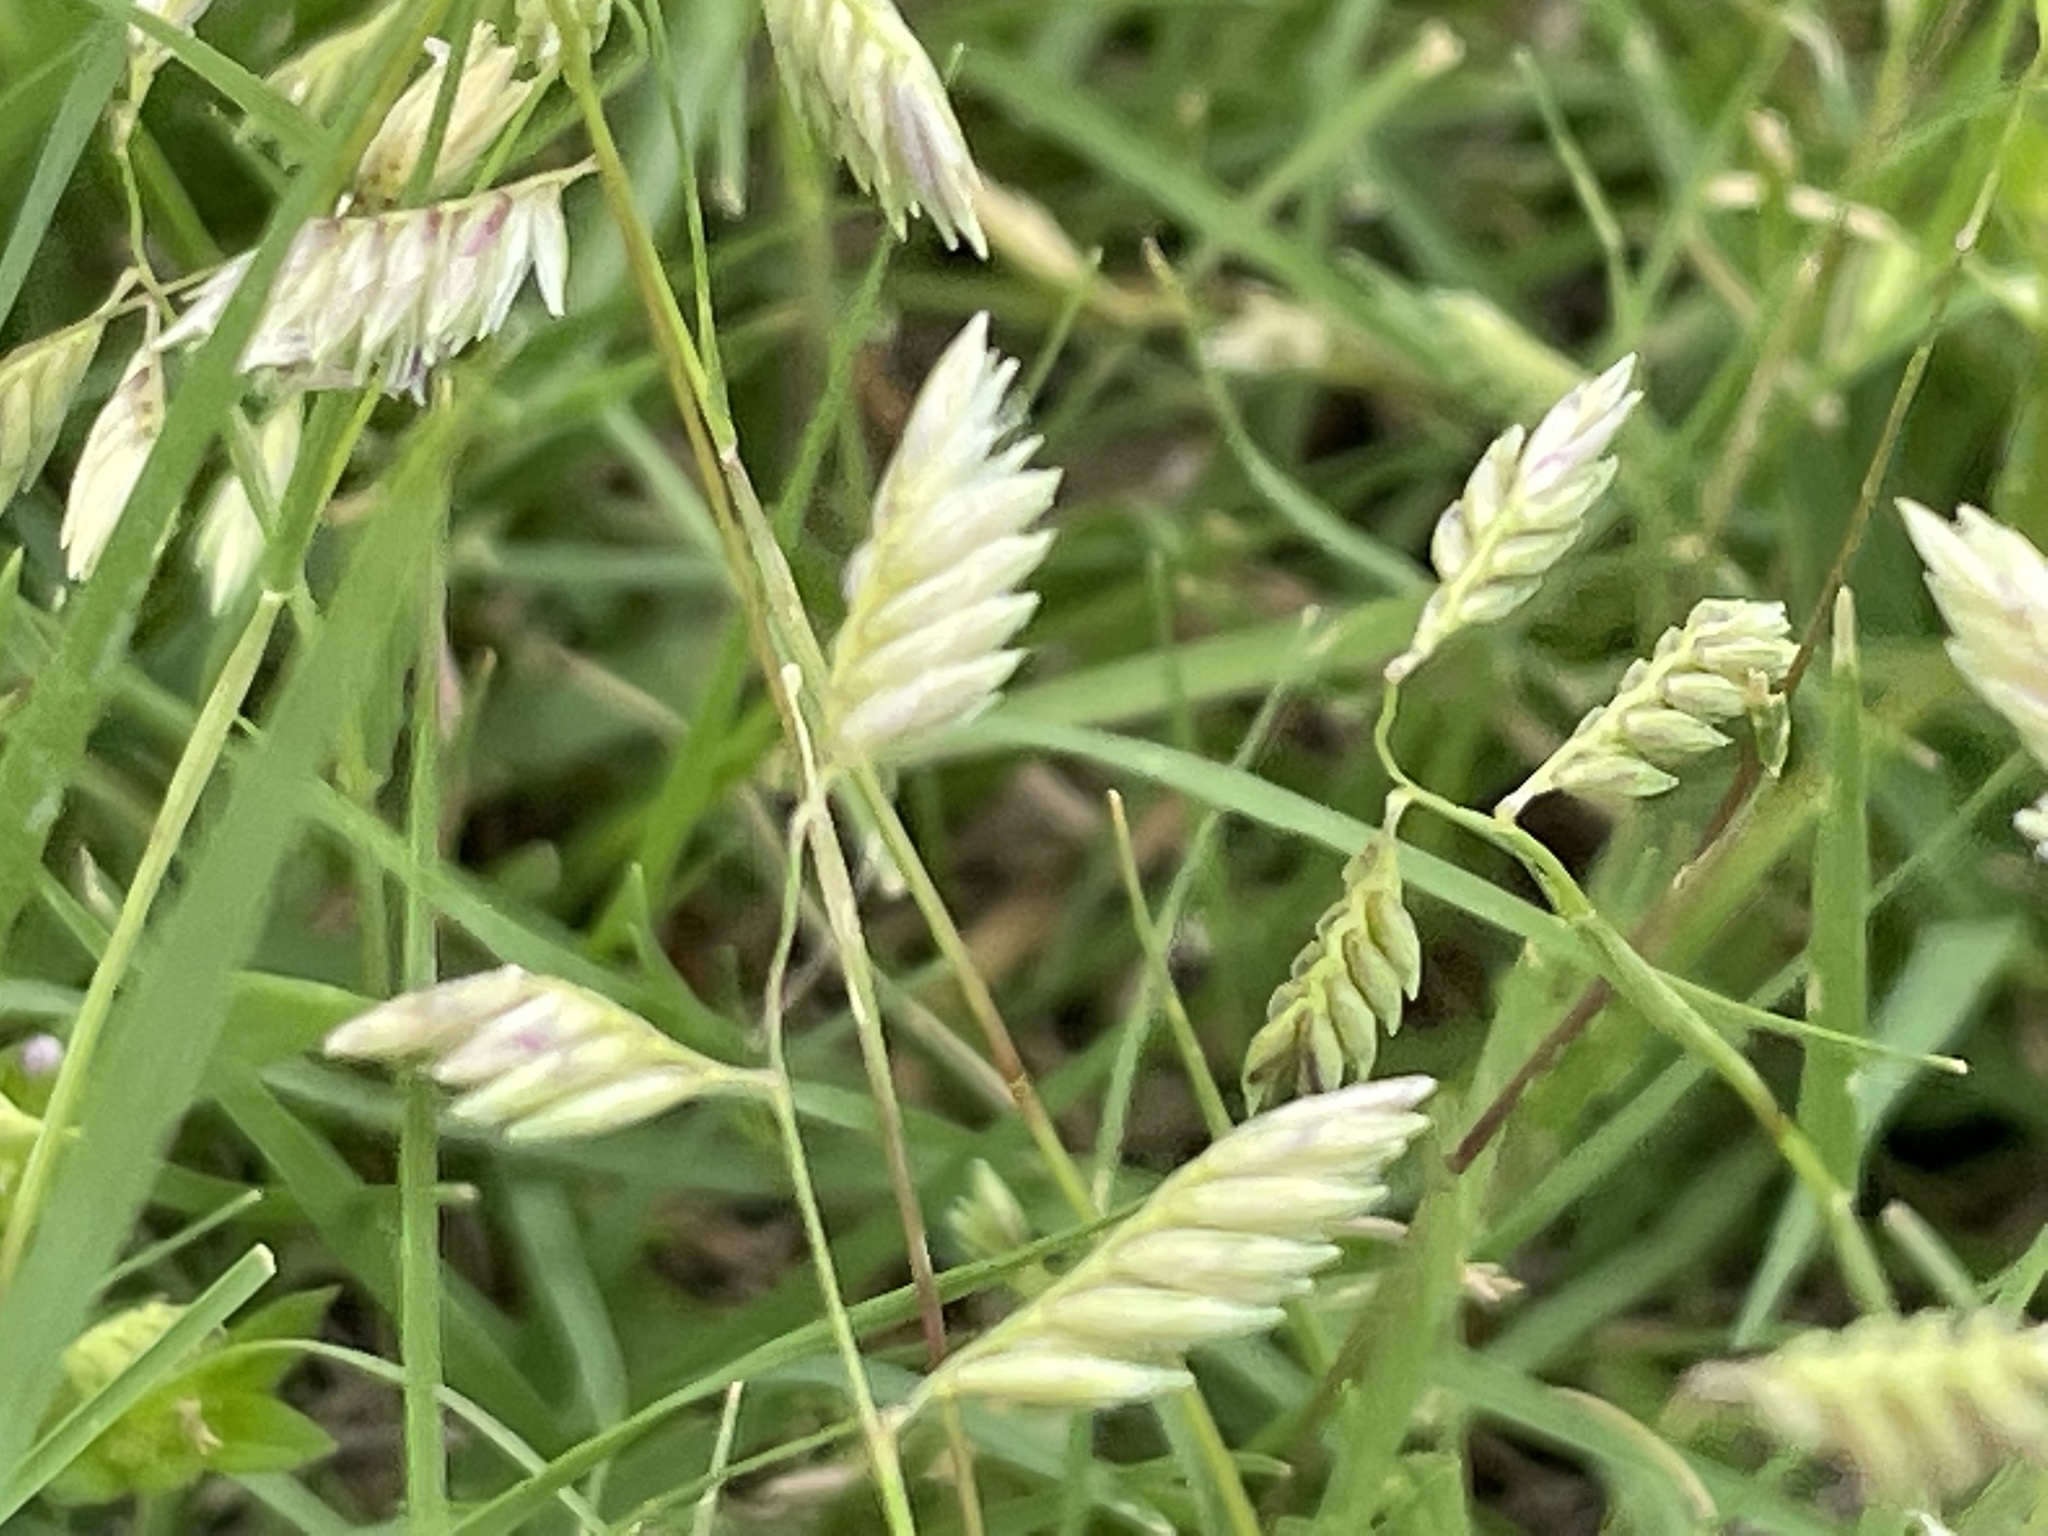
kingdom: Plantae
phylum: Tracheophyta
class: Liliopsida
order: Poales
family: Poaceae
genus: Bouteloua
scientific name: Bouteloua dactyloides
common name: Buffalo grass
